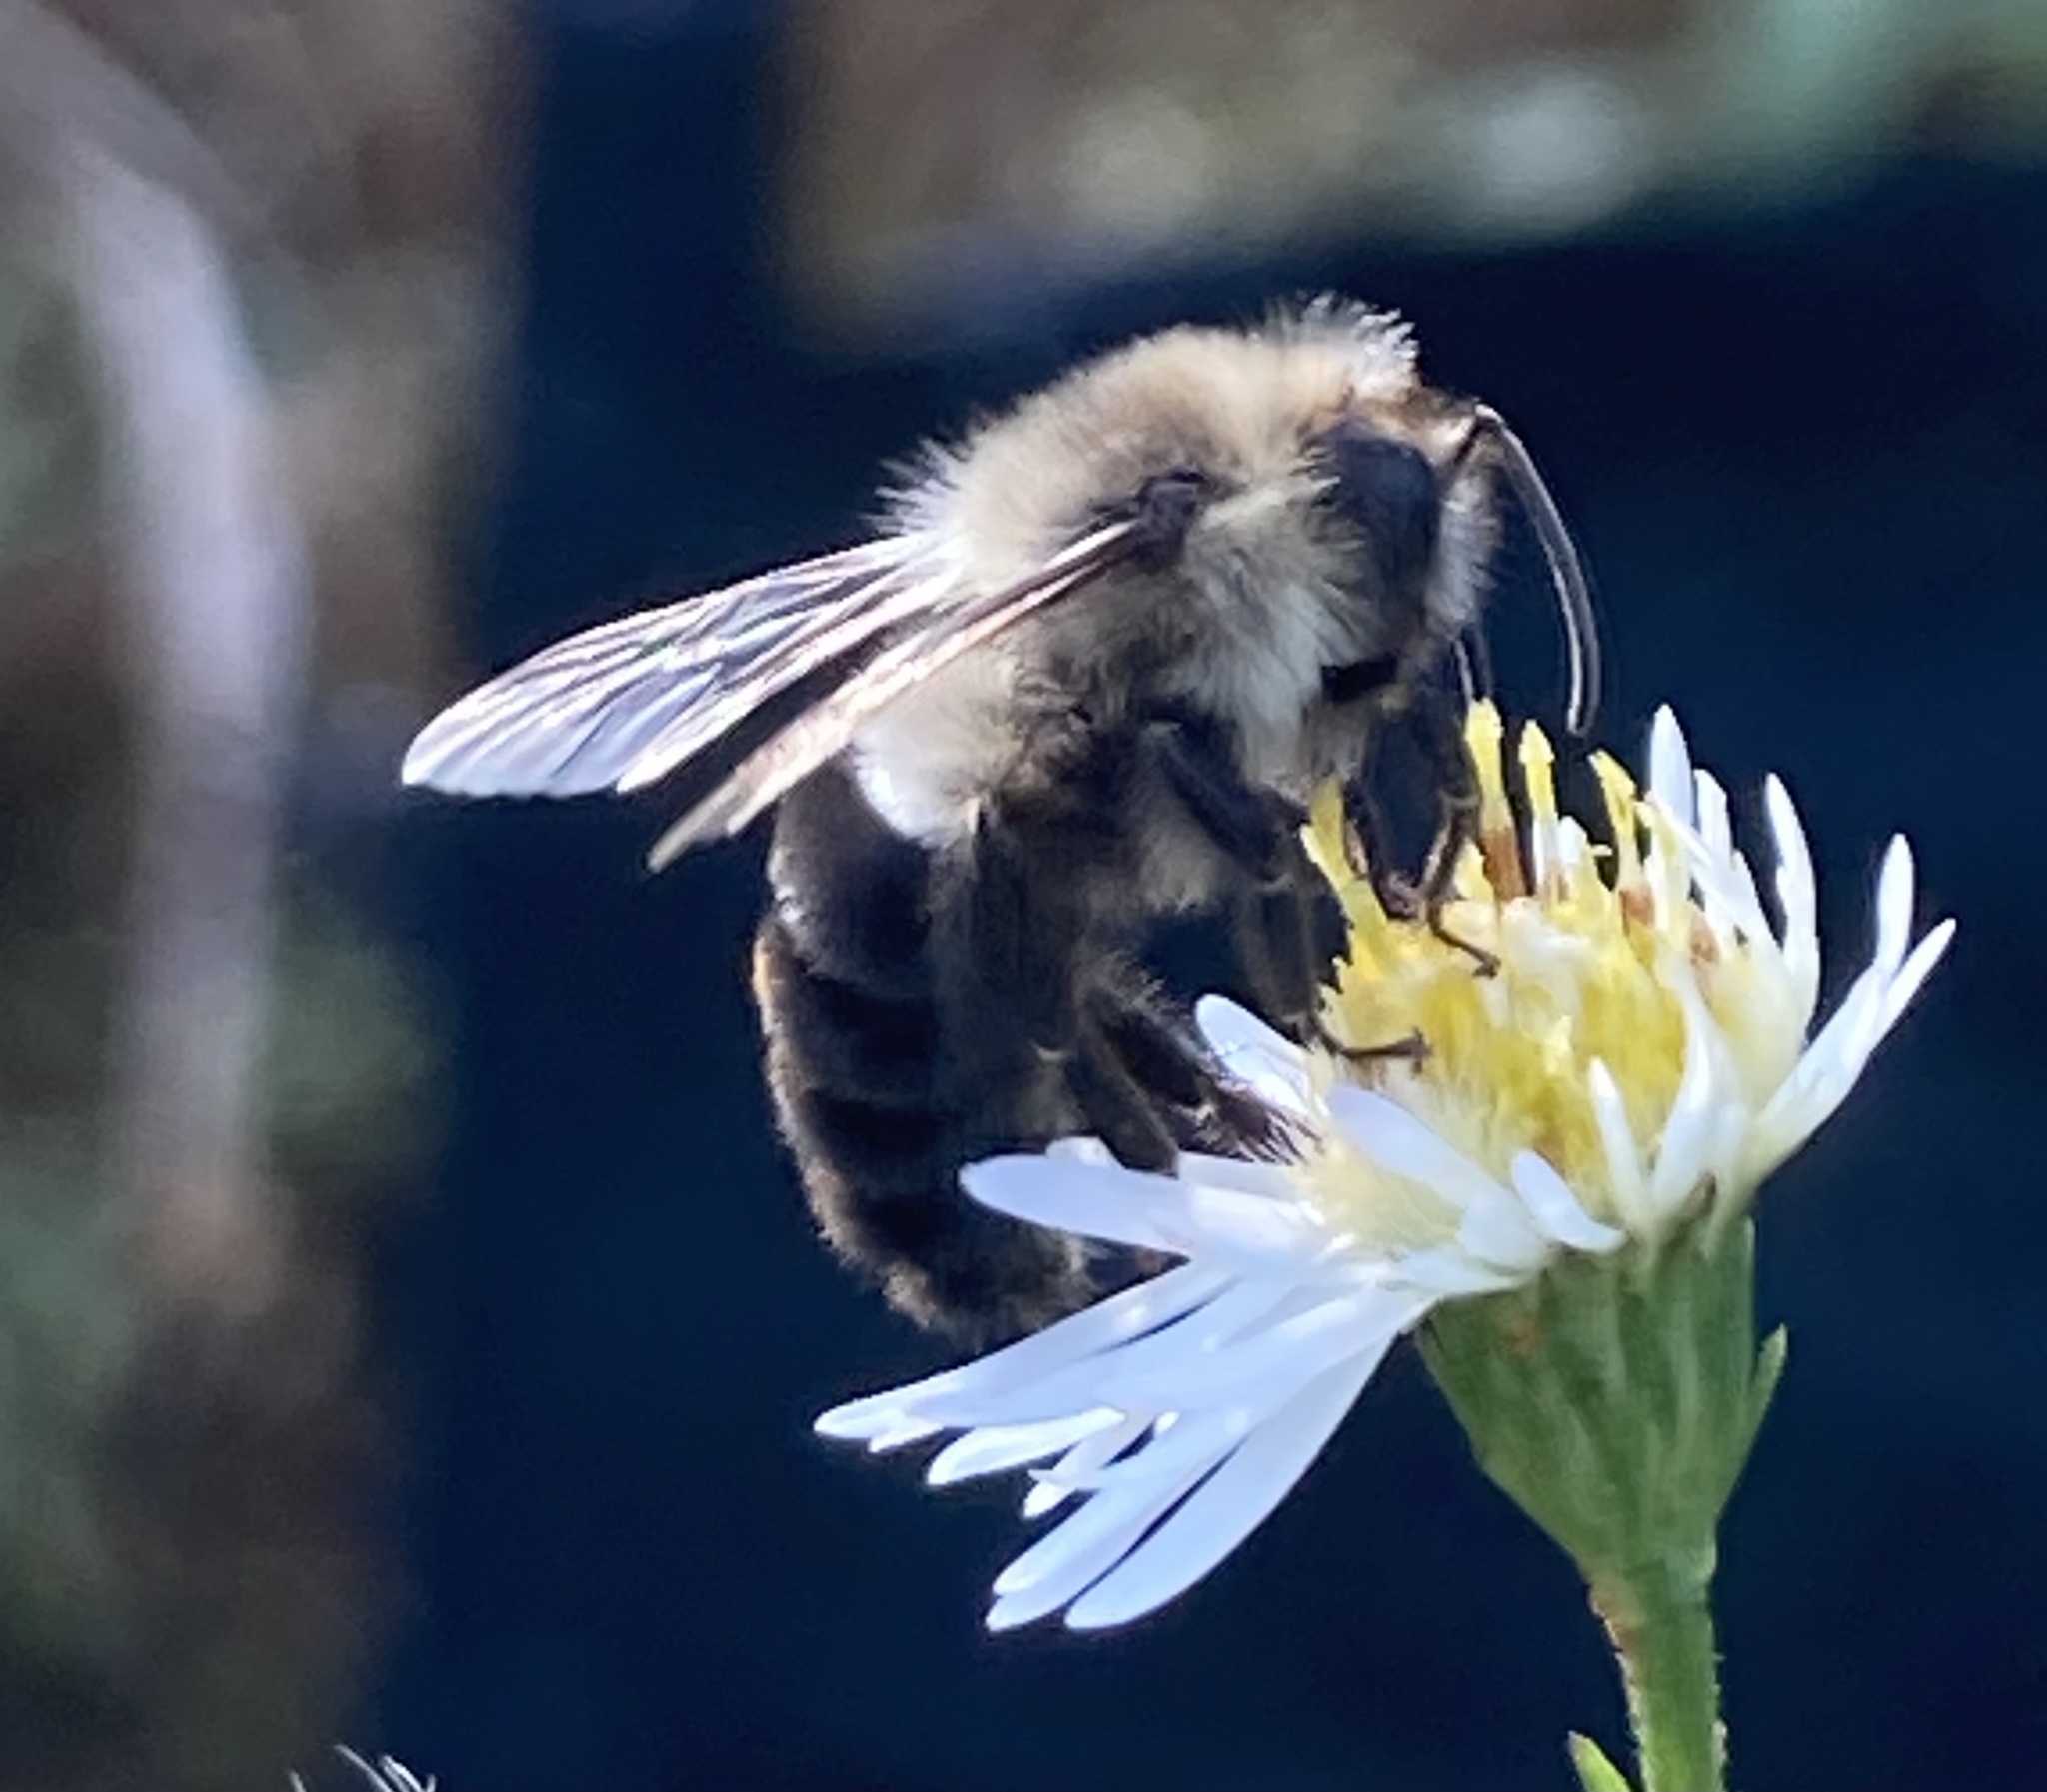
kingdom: Animalia
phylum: Arthropoda
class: Insecta
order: Hymenoptera
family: Apidae
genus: Bombus
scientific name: Bombus impatiens
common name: Common eastern bumble bee
